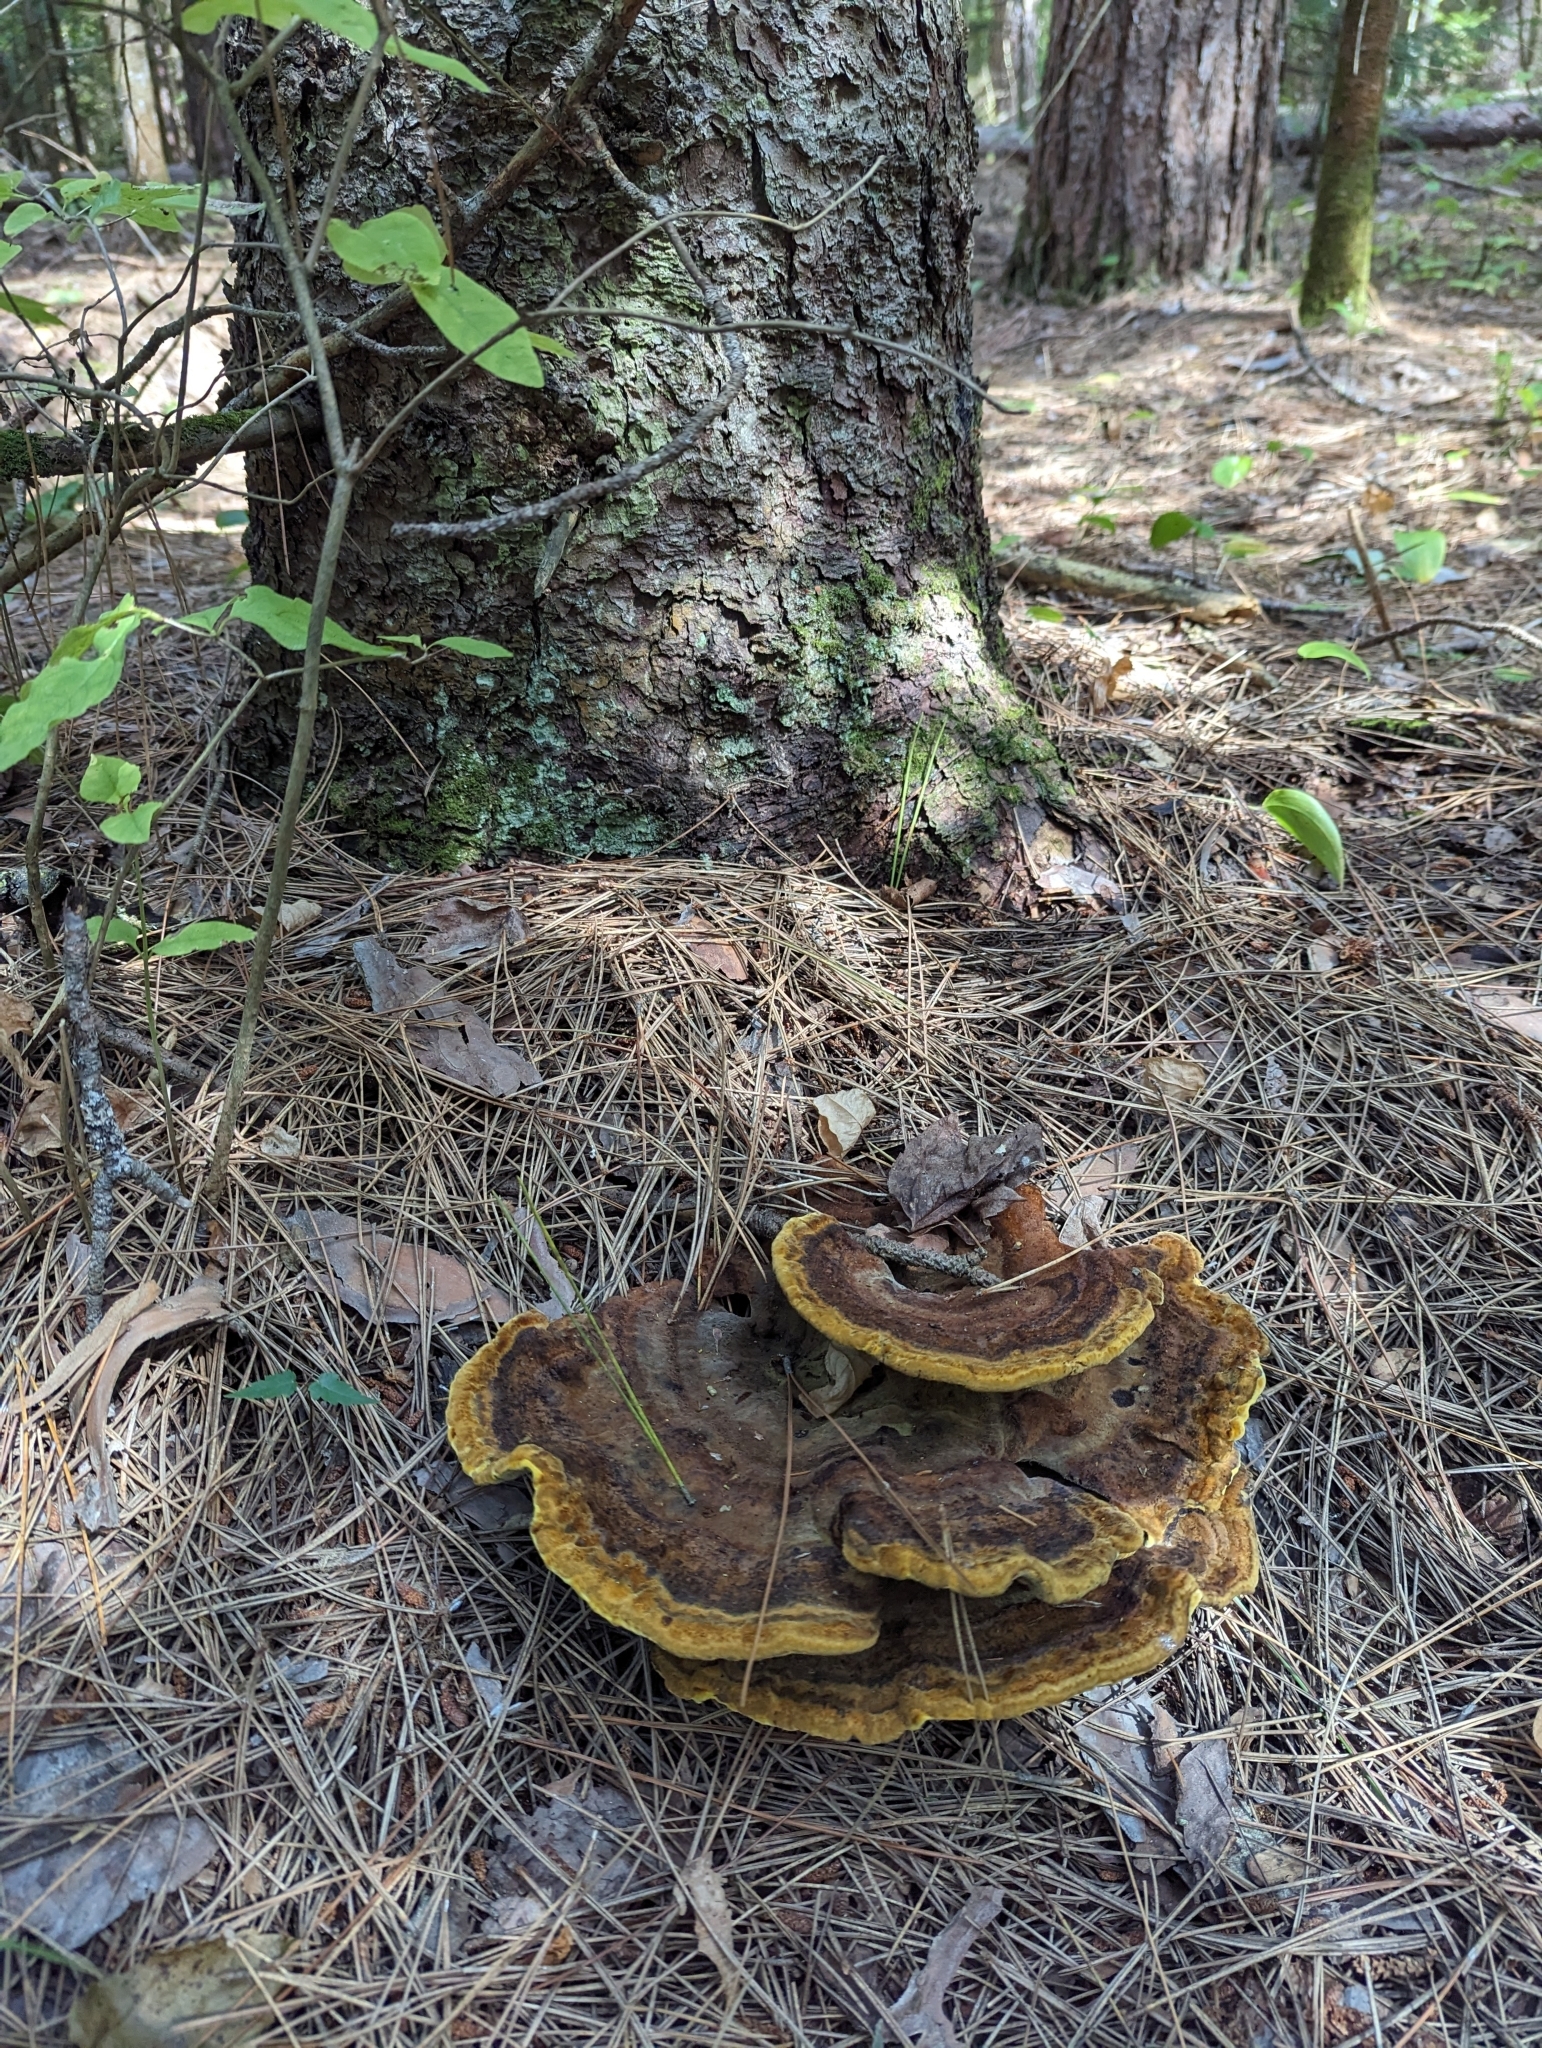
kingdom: Fungi
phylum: Basidiomycota
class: Agaricomycetes
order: Polyporales
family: Laetiporaceae
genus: Phaeolus
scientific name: Phaeolus schweinitzii
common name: Dyer's mazegill
